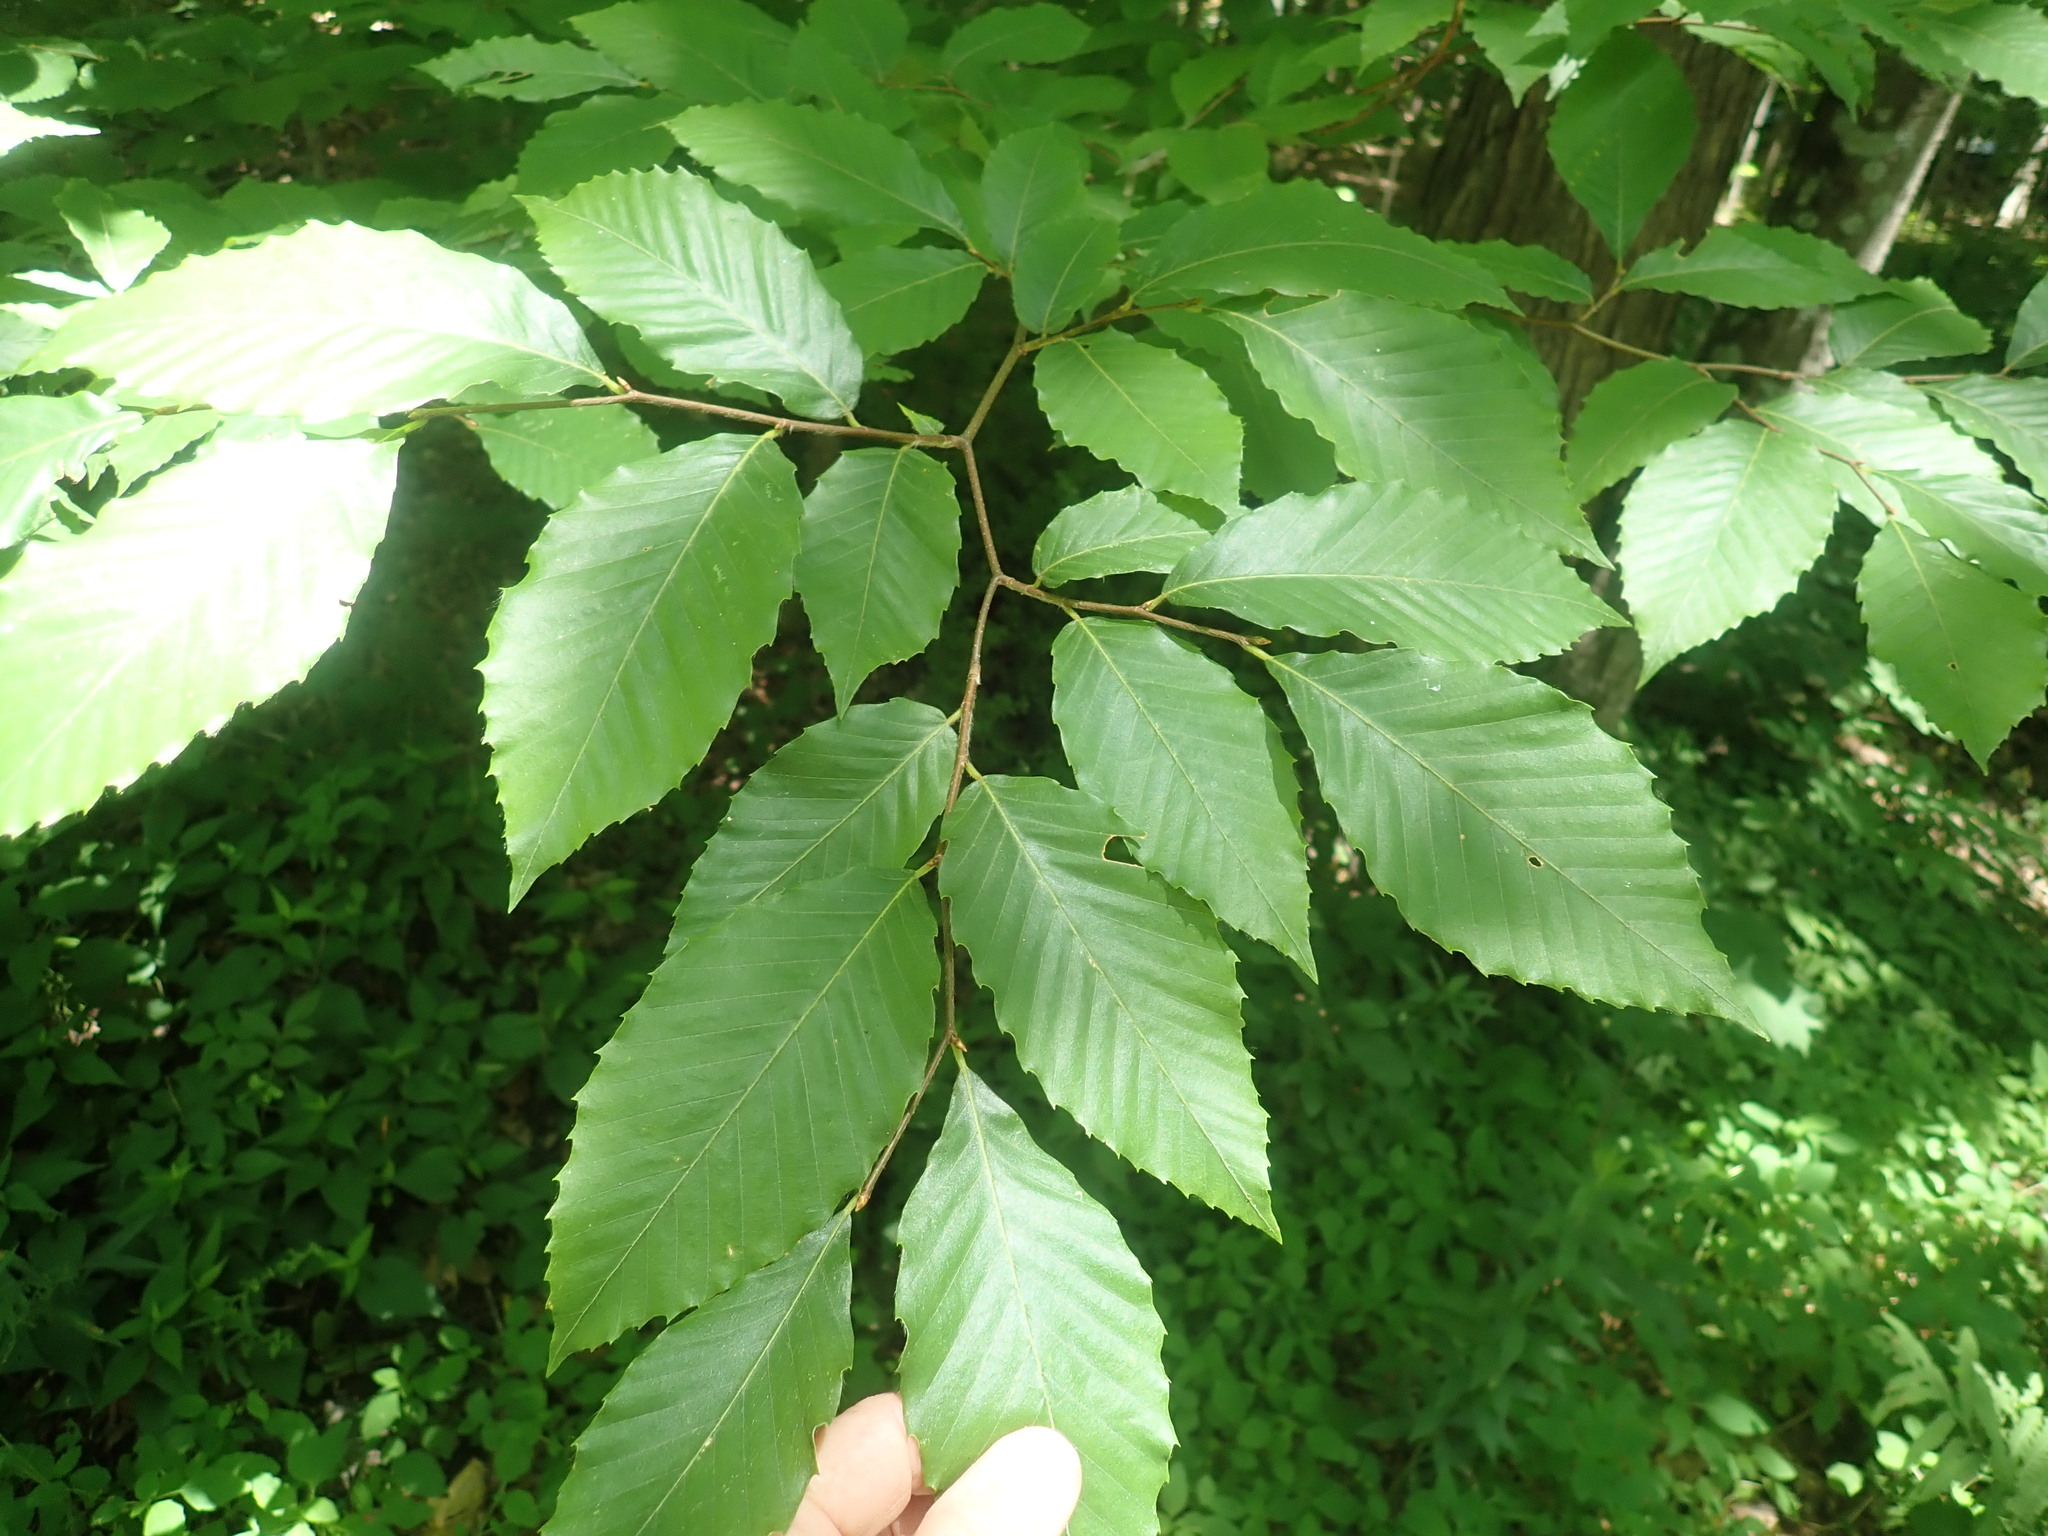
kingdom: Plantae
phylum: Tracheophyta
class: Magnoliopsida
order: Fagales
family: Fagaceae
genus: Fagus
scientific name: Fagus grandifolia
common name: American beech
